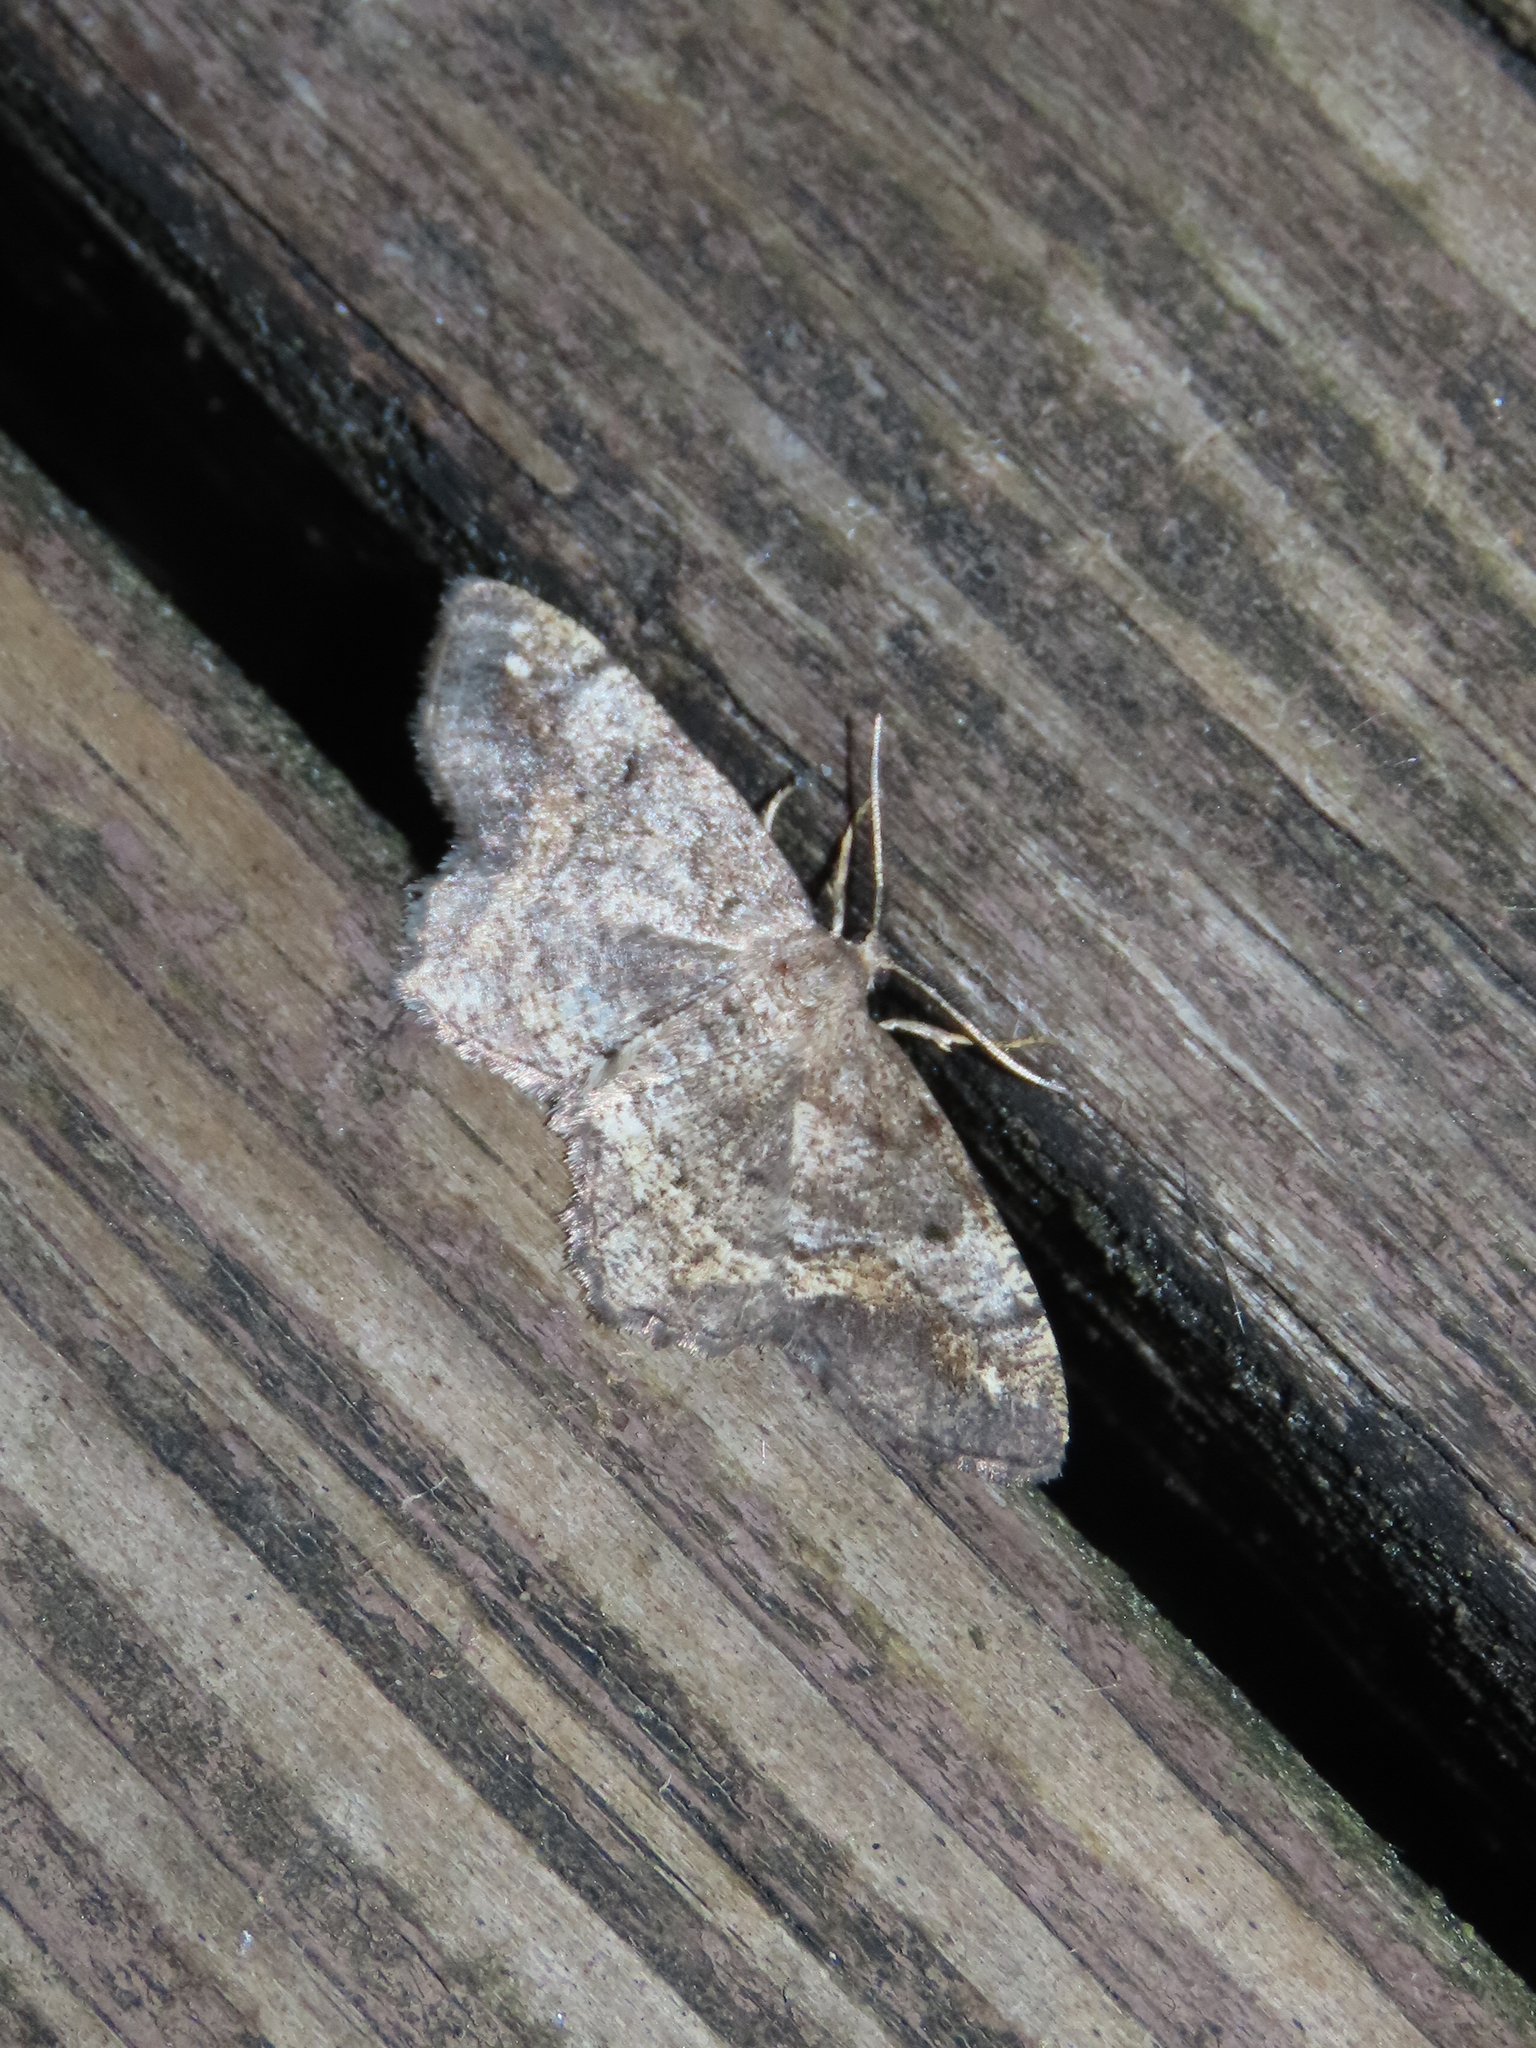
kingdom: Animalia
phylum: Arthropoda
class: Insecta
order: Lepidoptera
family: Geometridae
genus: Hypagyrtis
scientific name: Hypagyrtis unipunctata
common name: One-spotted variant
